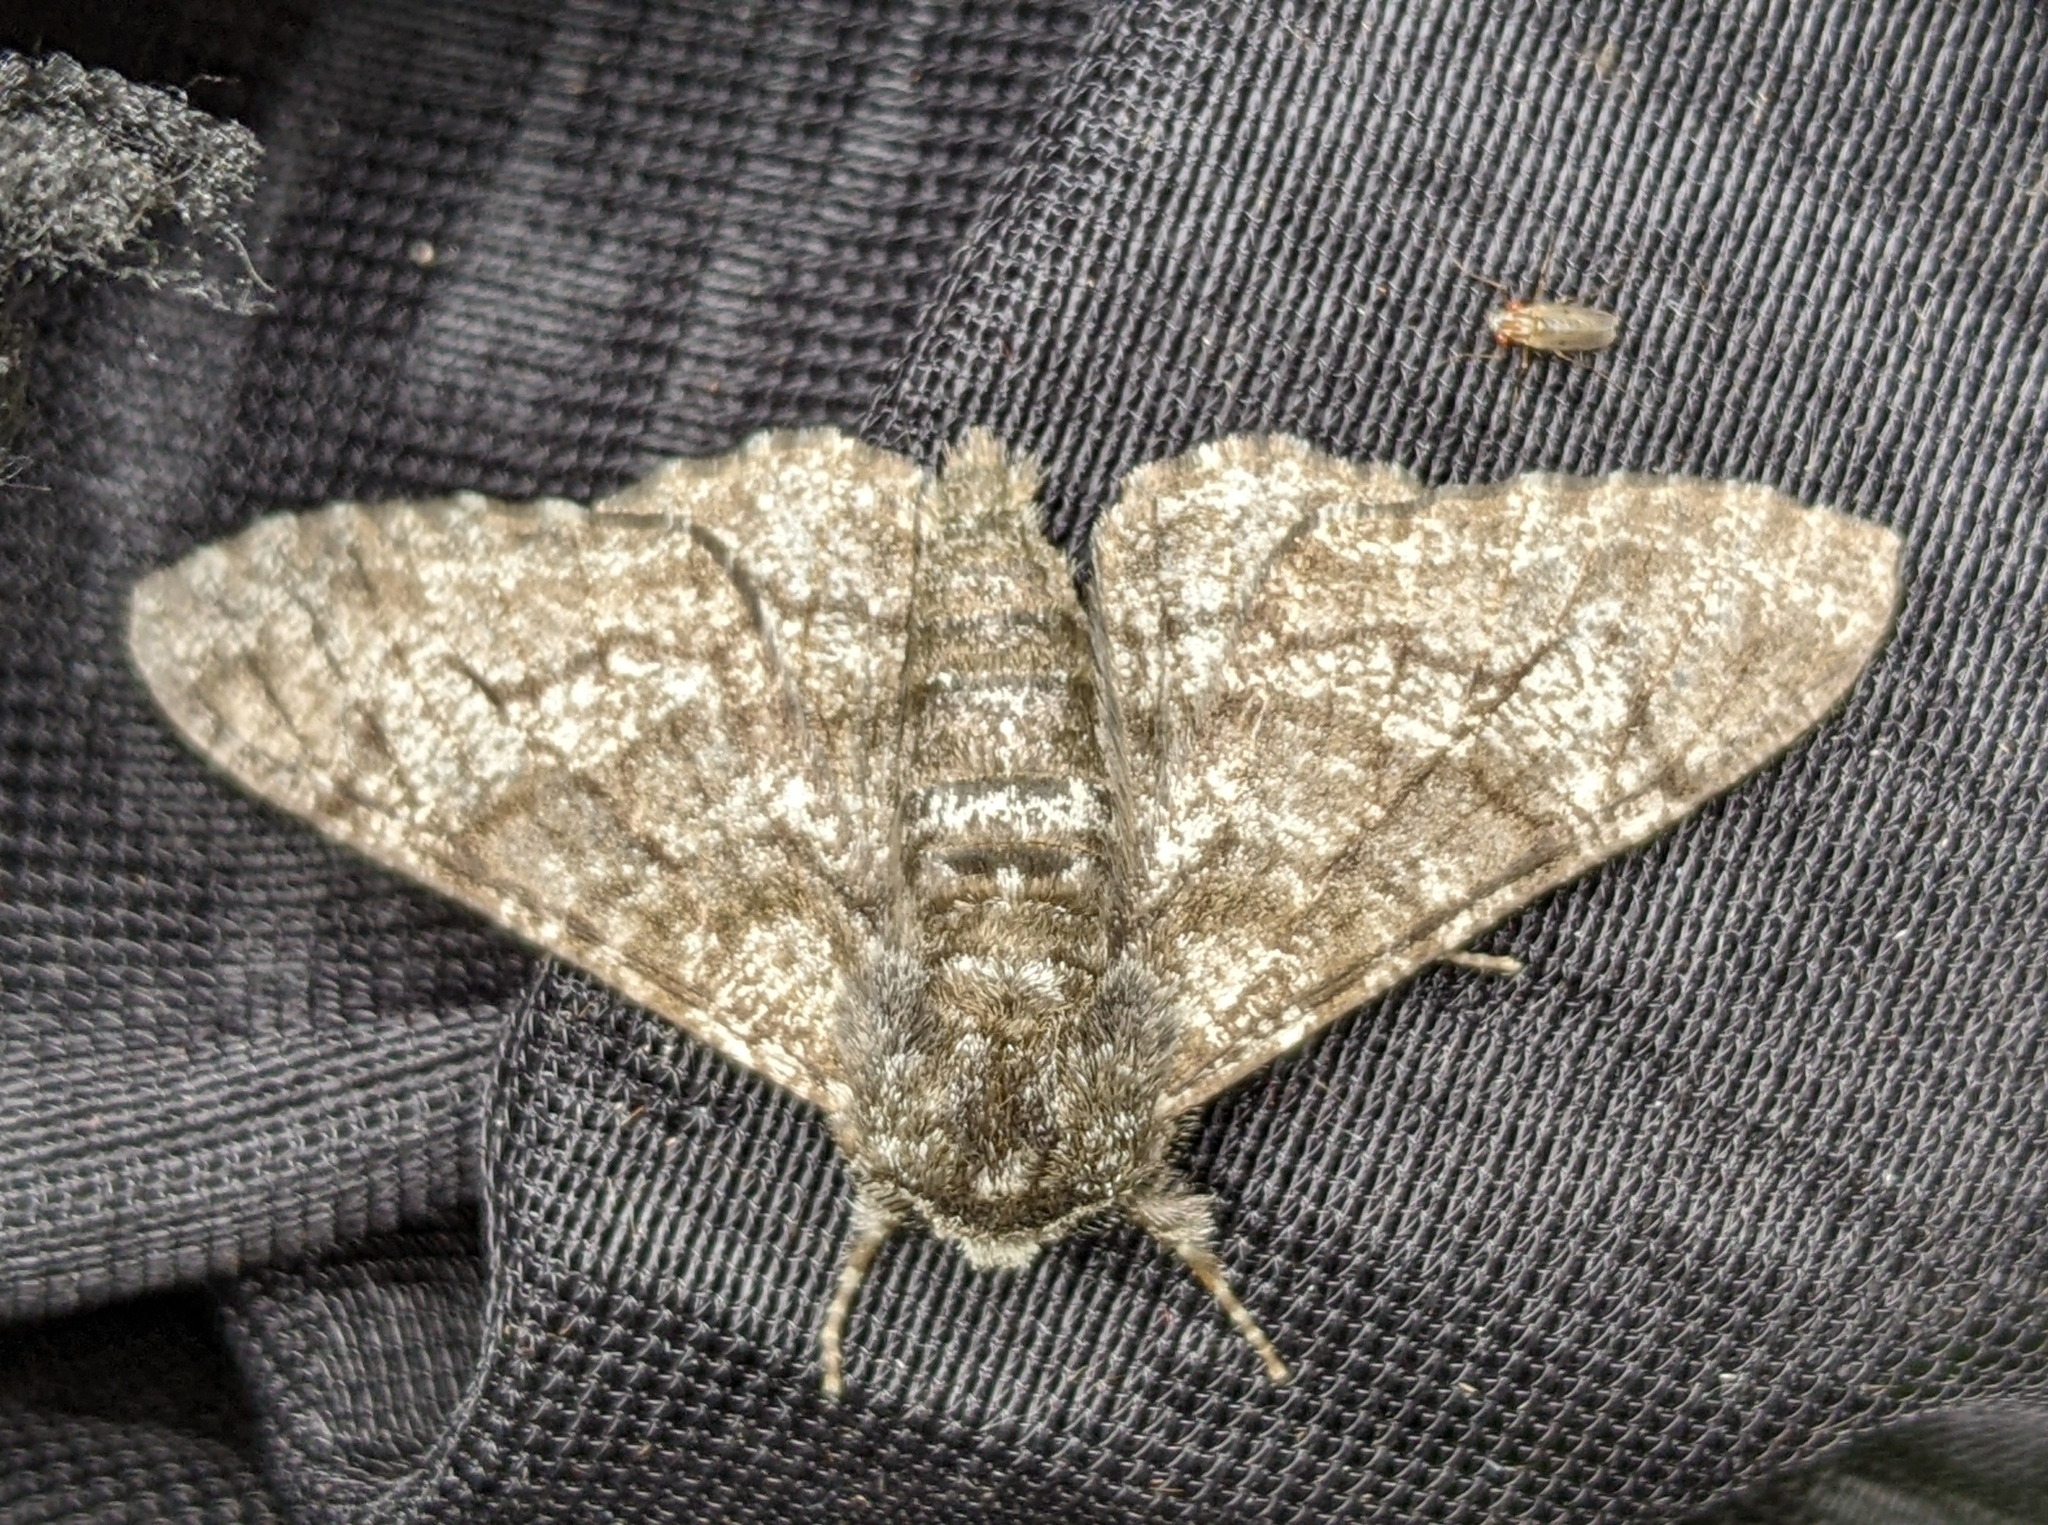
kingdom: Animalia
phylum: Arthropoda
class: Insecta
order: Lepidoptera
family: Geometridae
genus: Biston
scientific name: Biston betularia
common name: Peppered moth
